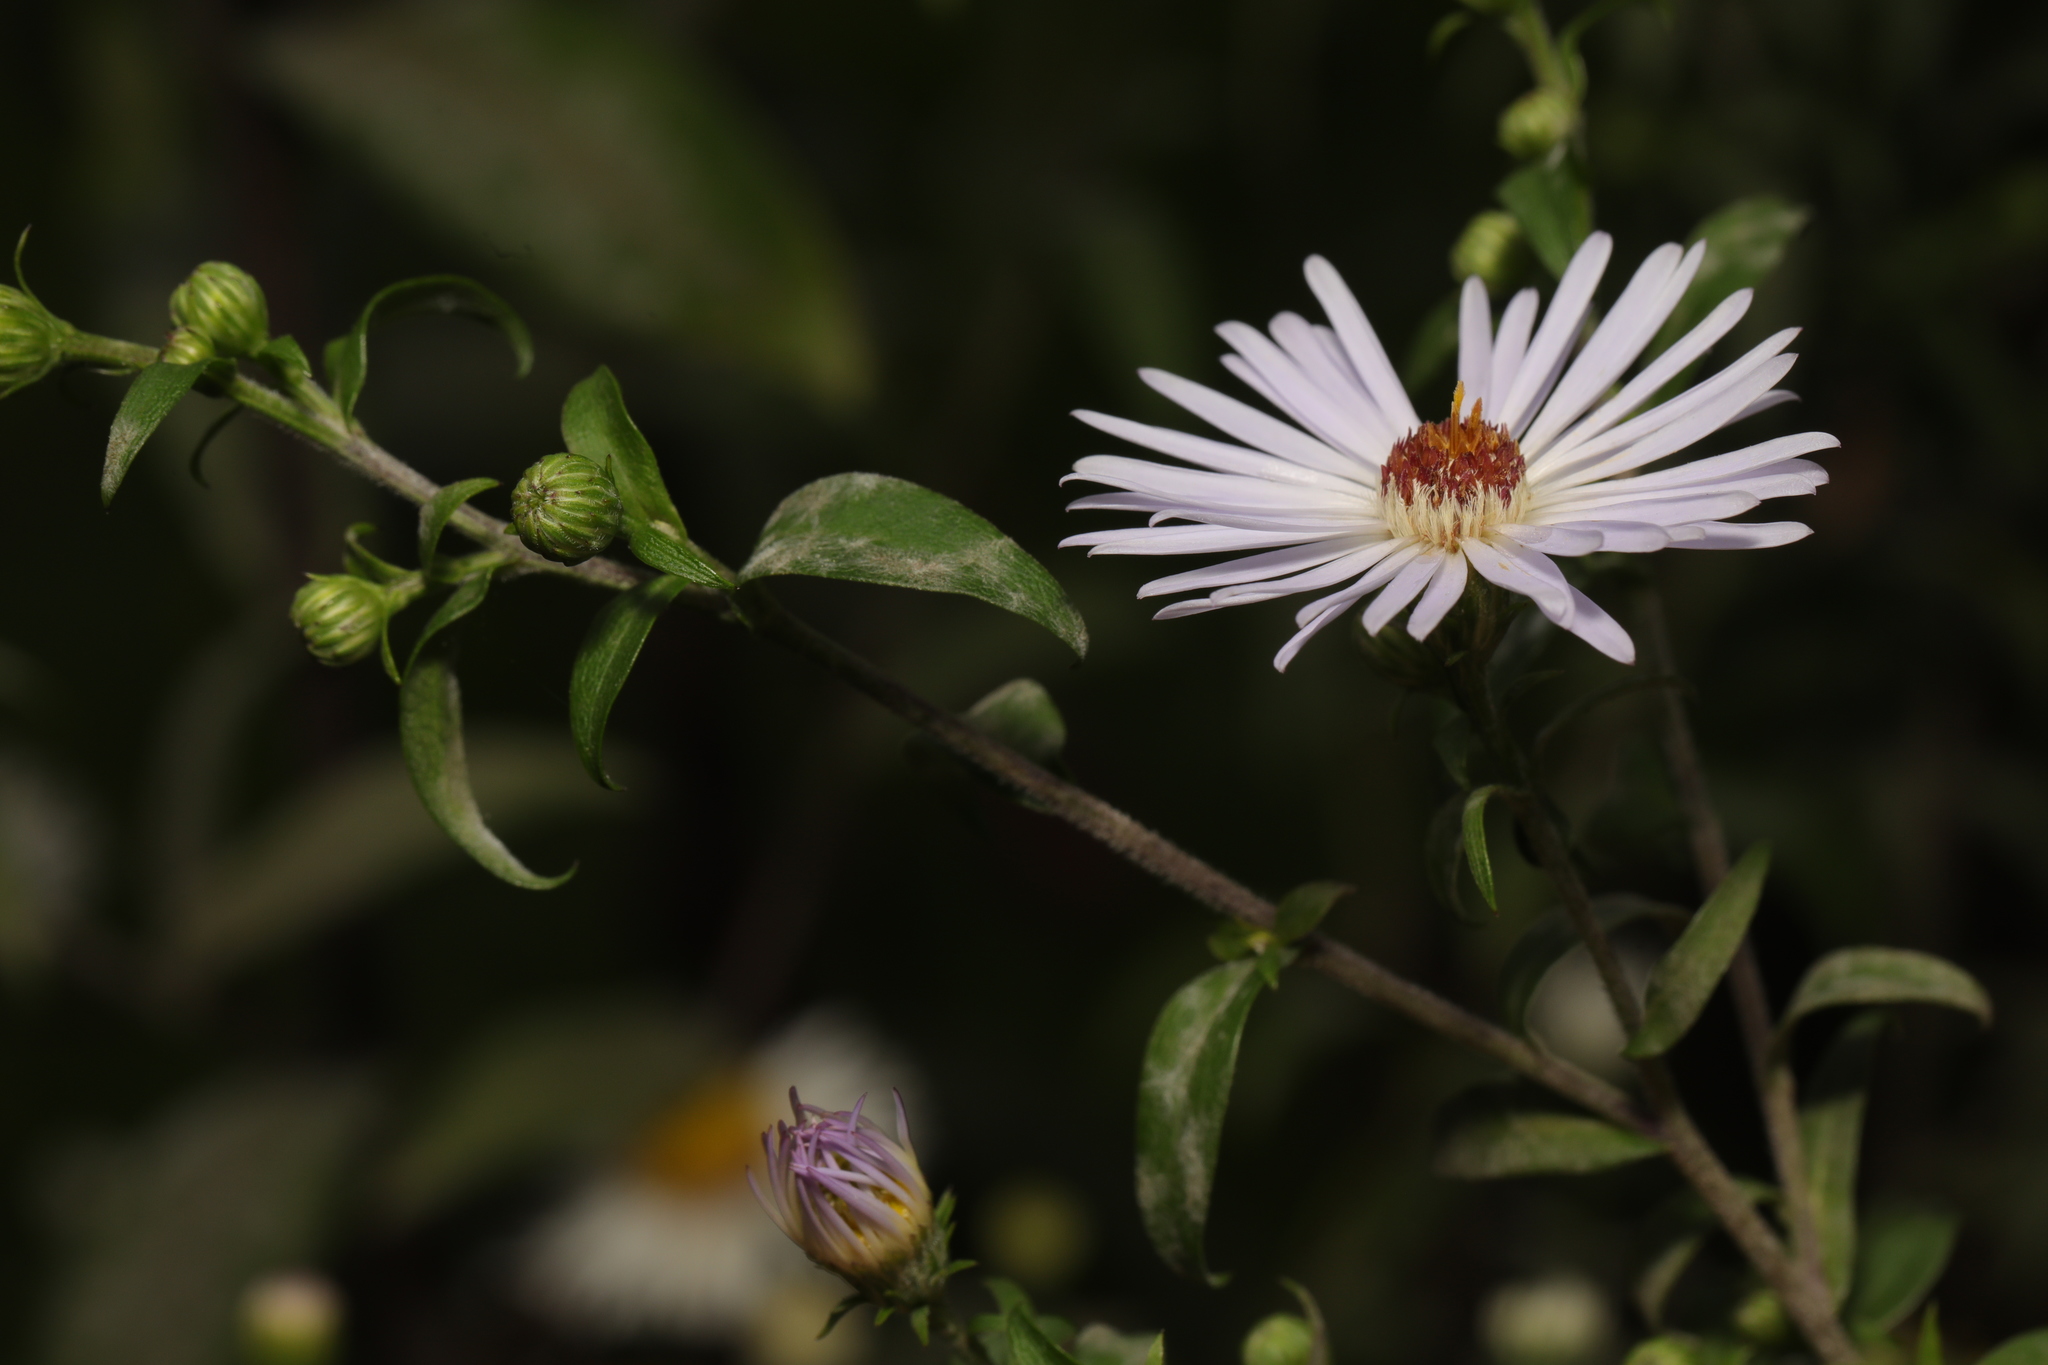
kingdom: Plantae
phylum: Tracheophyta
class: Magnoliopsida
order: Asterales
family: Asteraceae
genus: Symphyotrichum
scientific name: Symphyotrichum
